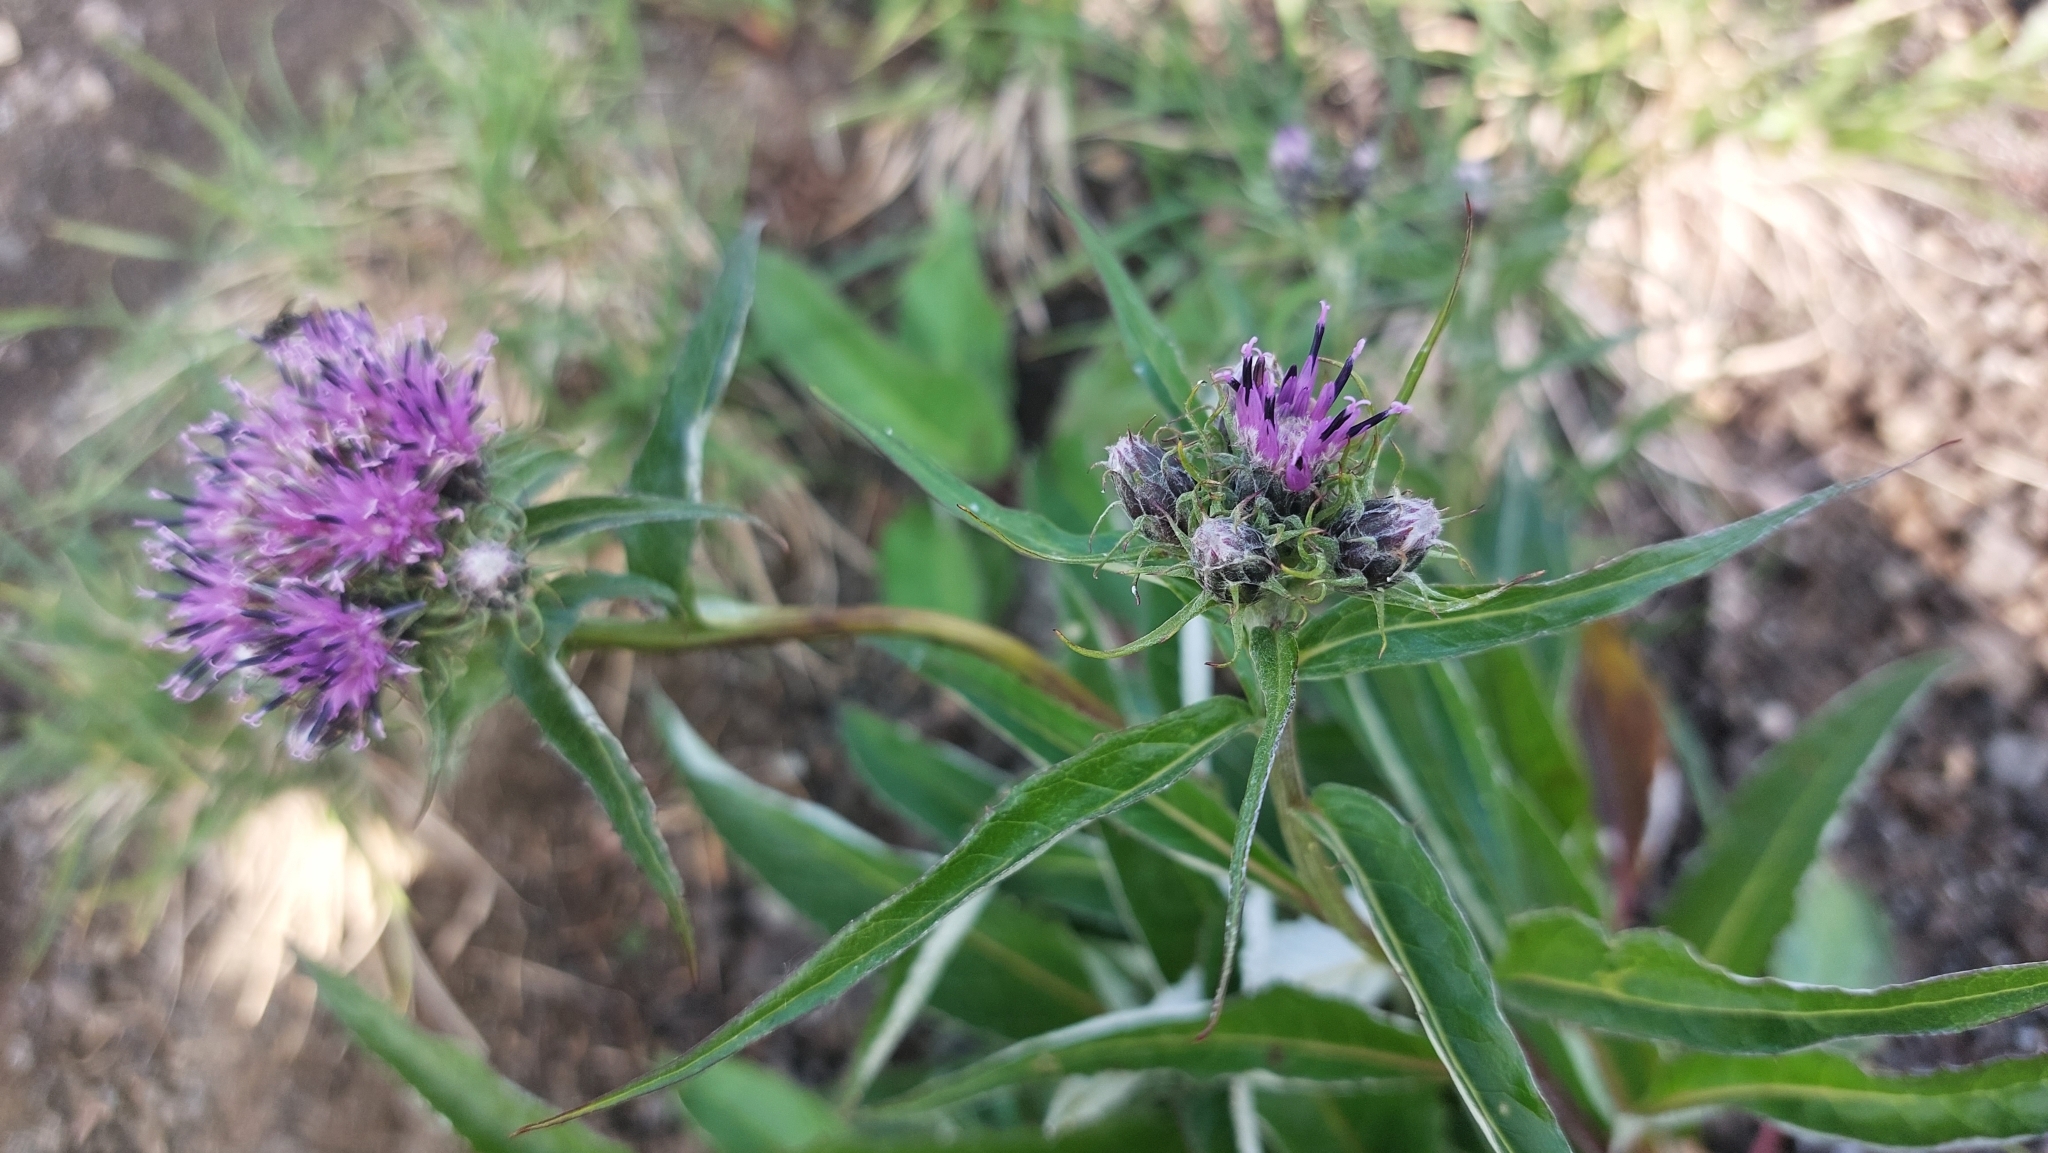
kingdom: Plantae
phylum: Tracheophyta
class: Magnoliopsida
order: Asterales
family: Asteraceae
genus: Saussurea
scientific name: Saussurea pseudotilesii
